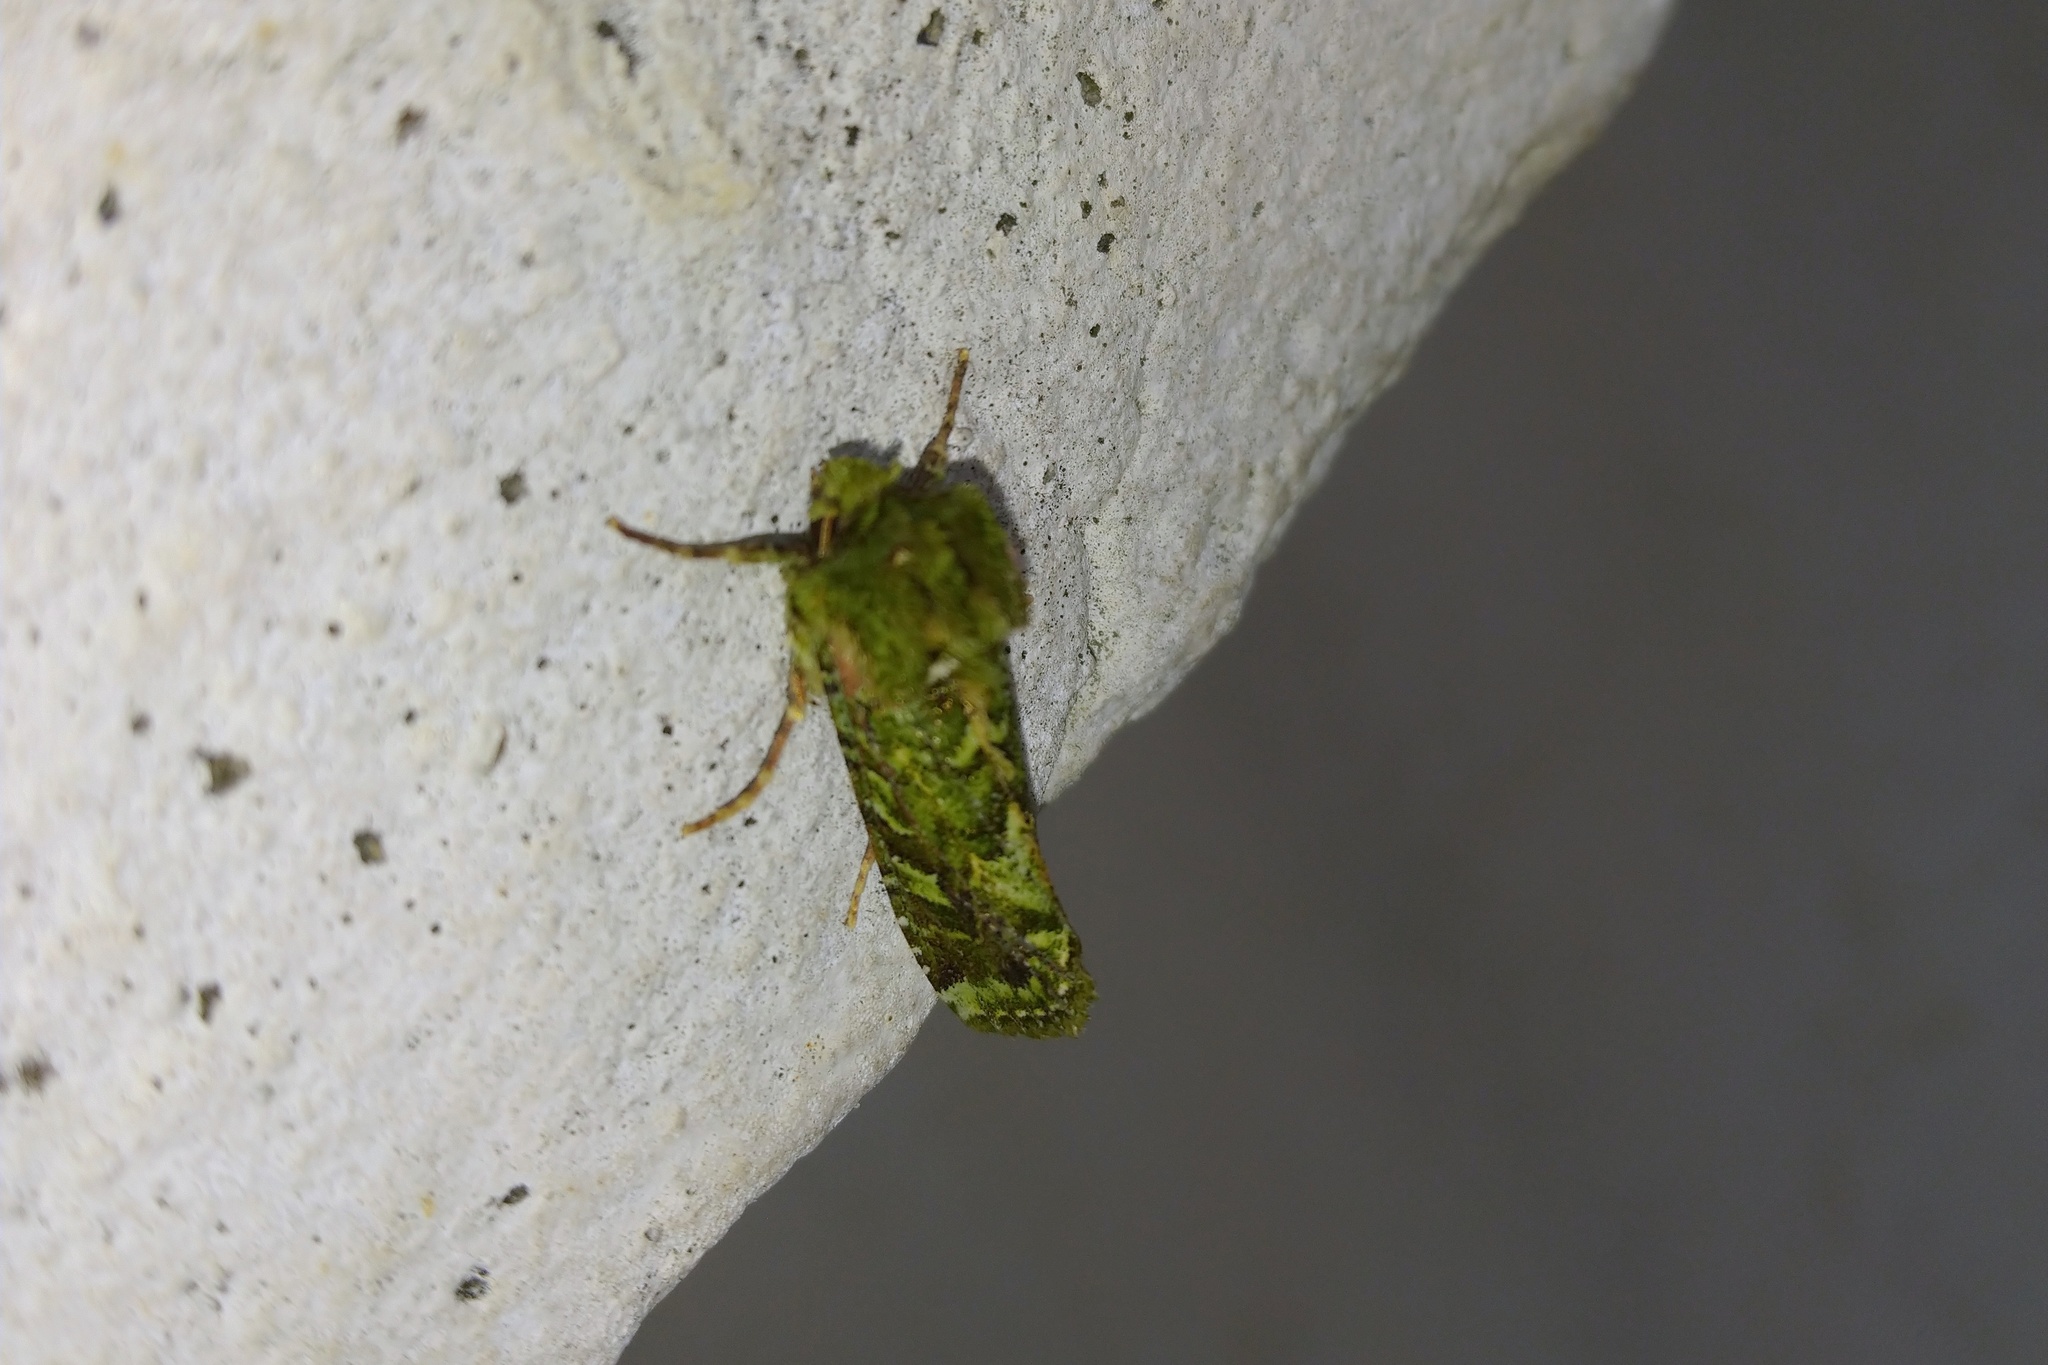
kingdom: Animalia
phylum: Arthropoda
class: Insecta
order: Lepidoptera
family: Noctuidae
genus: Feredayia
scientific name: Feredayia grammosa
